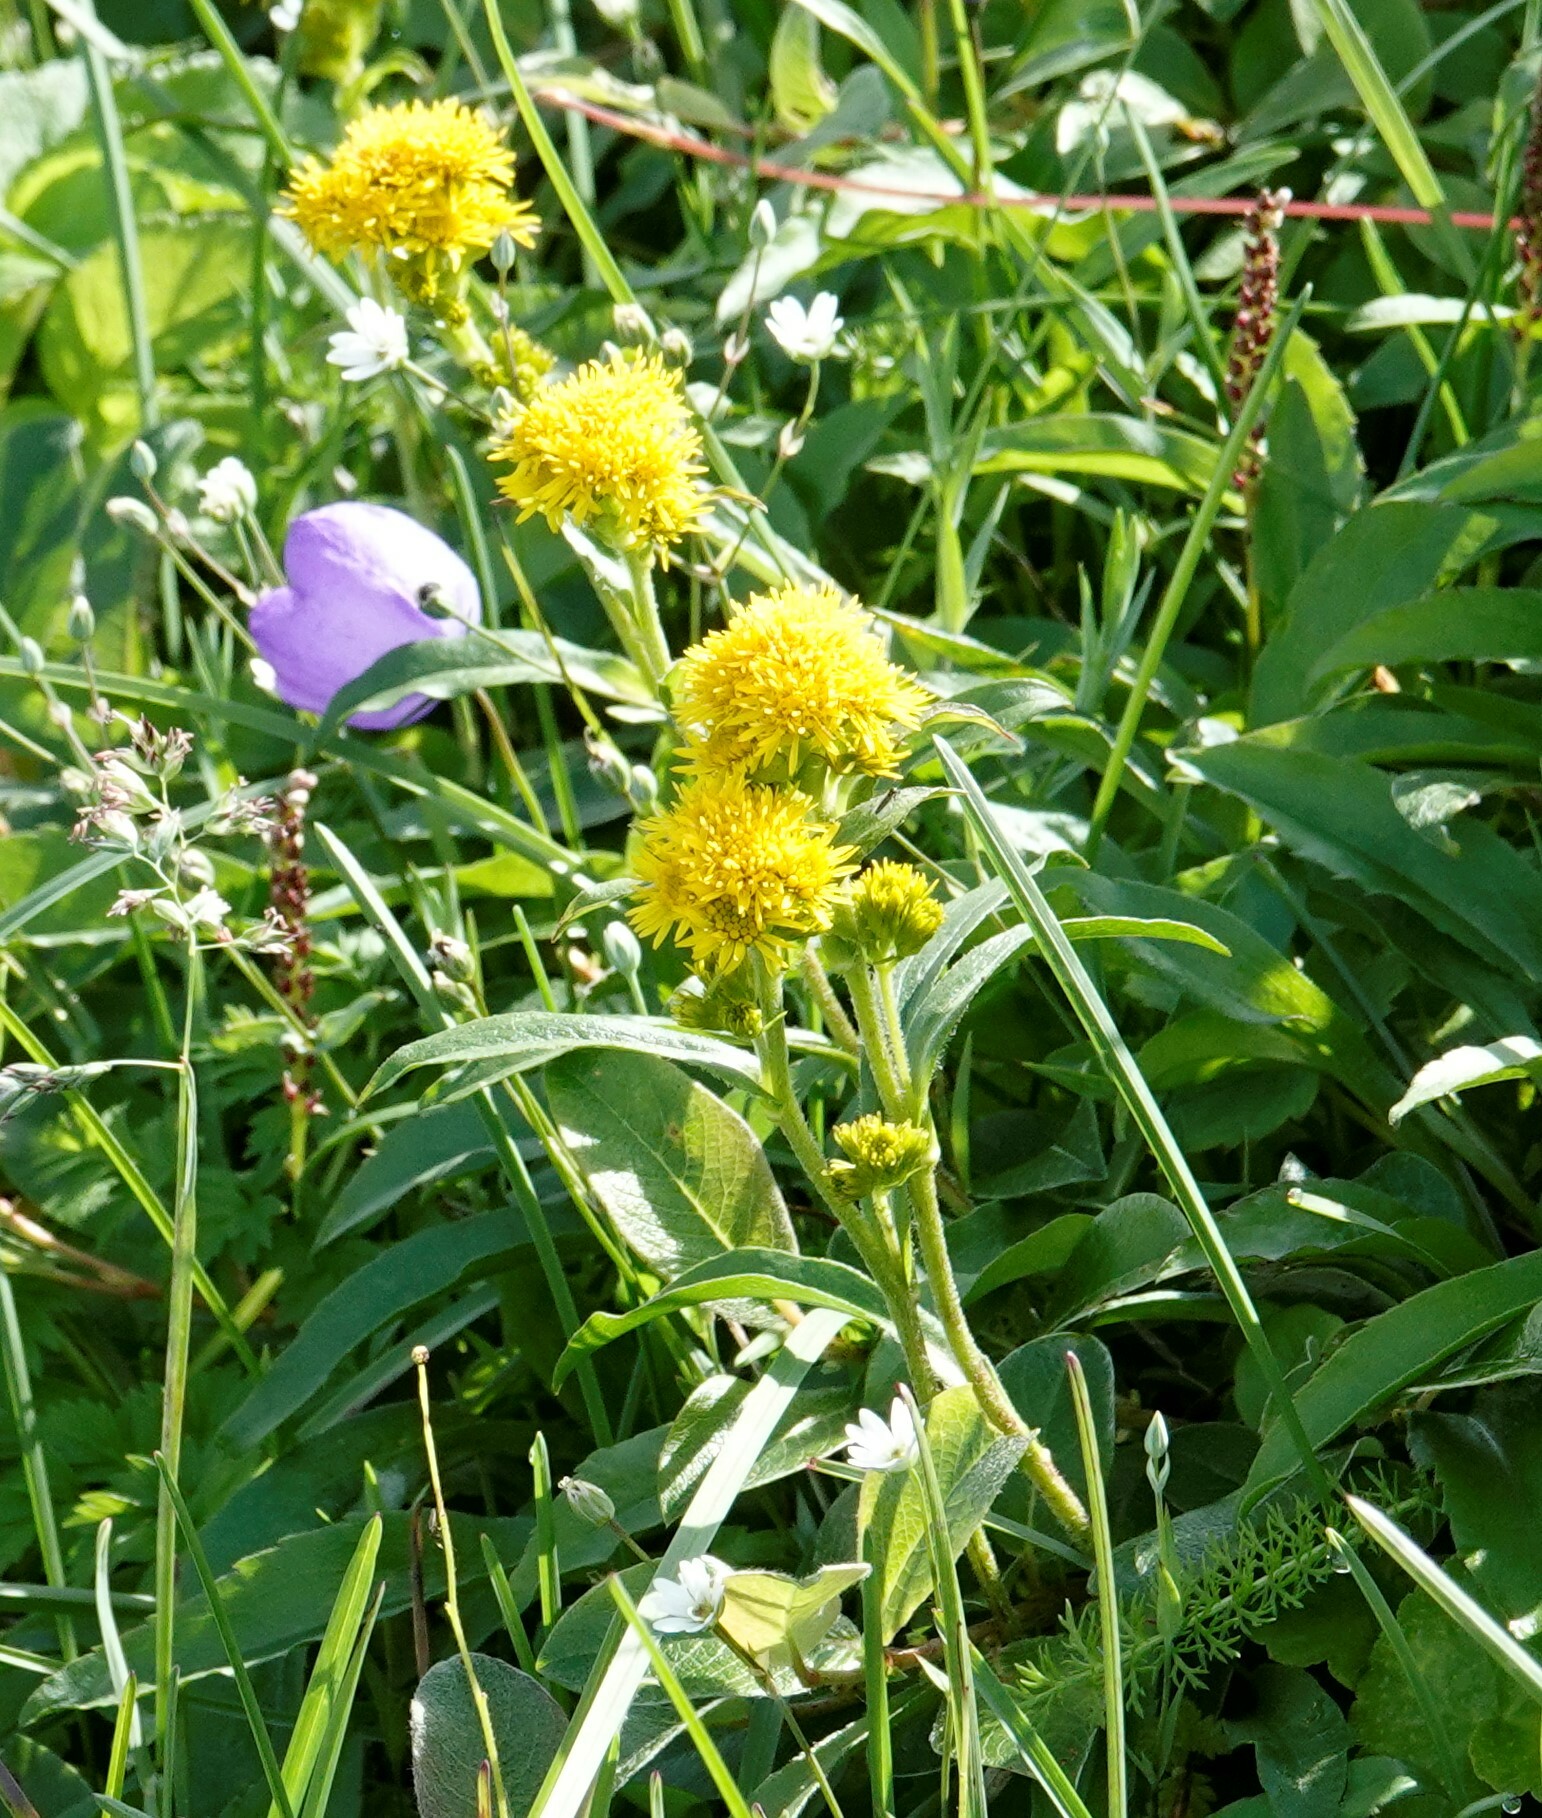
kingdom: Plantae
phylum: Tracheophyta
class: Magnoliopsida
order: Asterales
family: Asteraceae
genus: Solidago
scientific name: Solidago multiradiata
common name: Northern goldenrod
